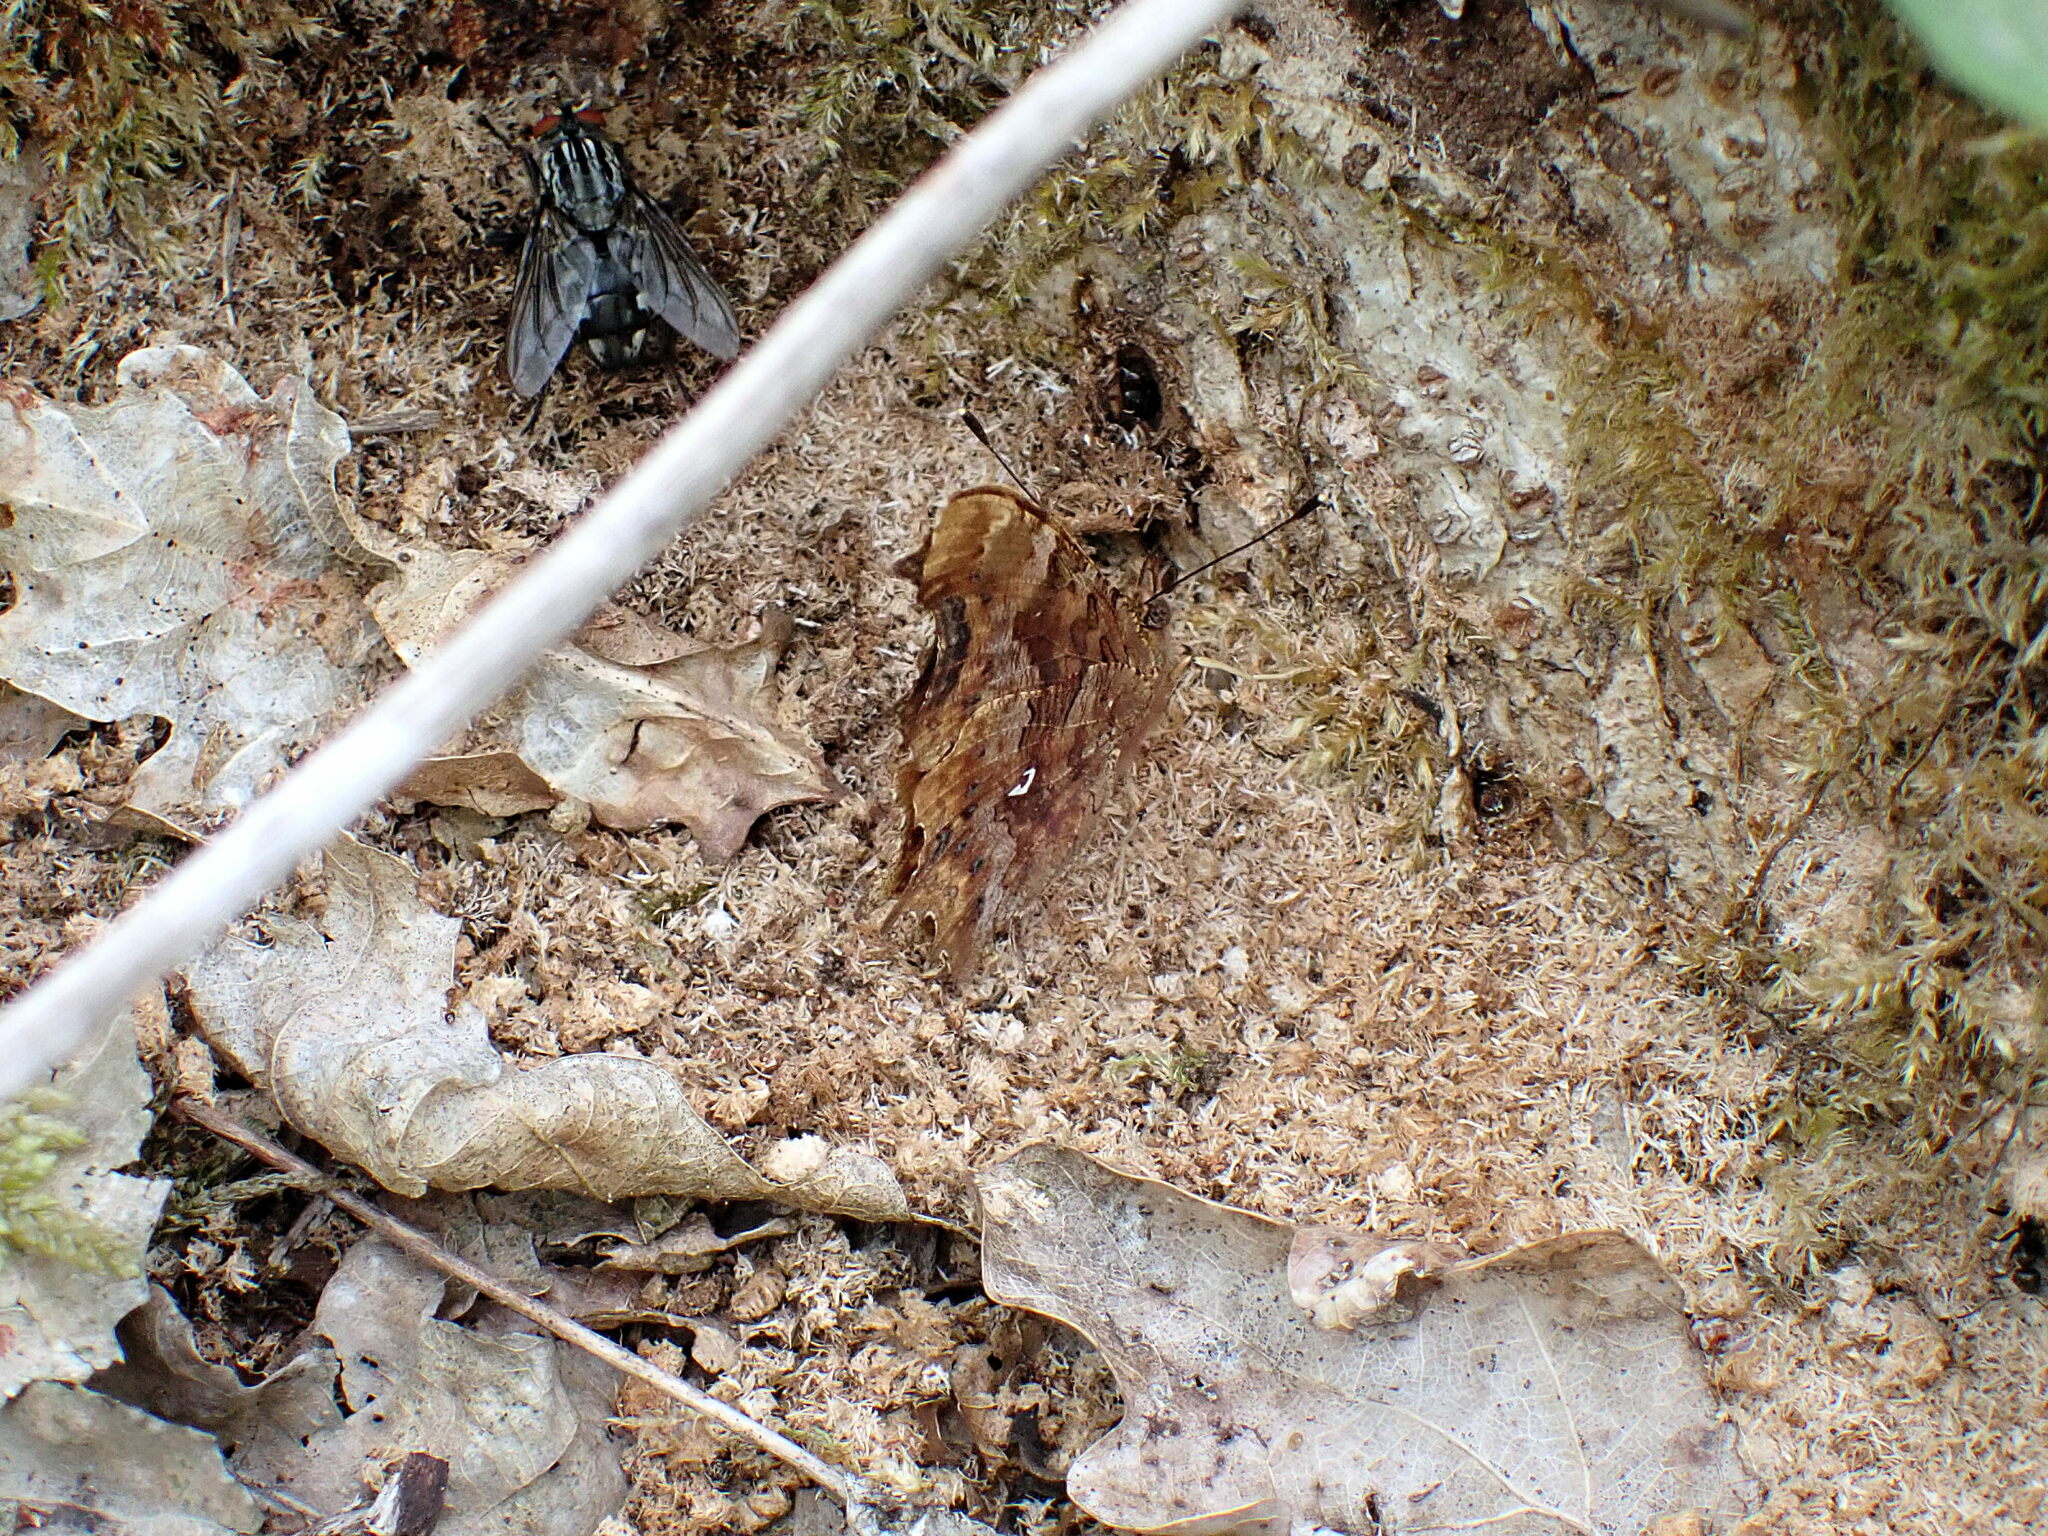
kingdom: Animalia
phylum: Arthropoda
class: Insecta
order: Lepidoptera
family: Nymphalidae
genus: Polygonia
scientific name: Polygonia c-album
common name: Comma
